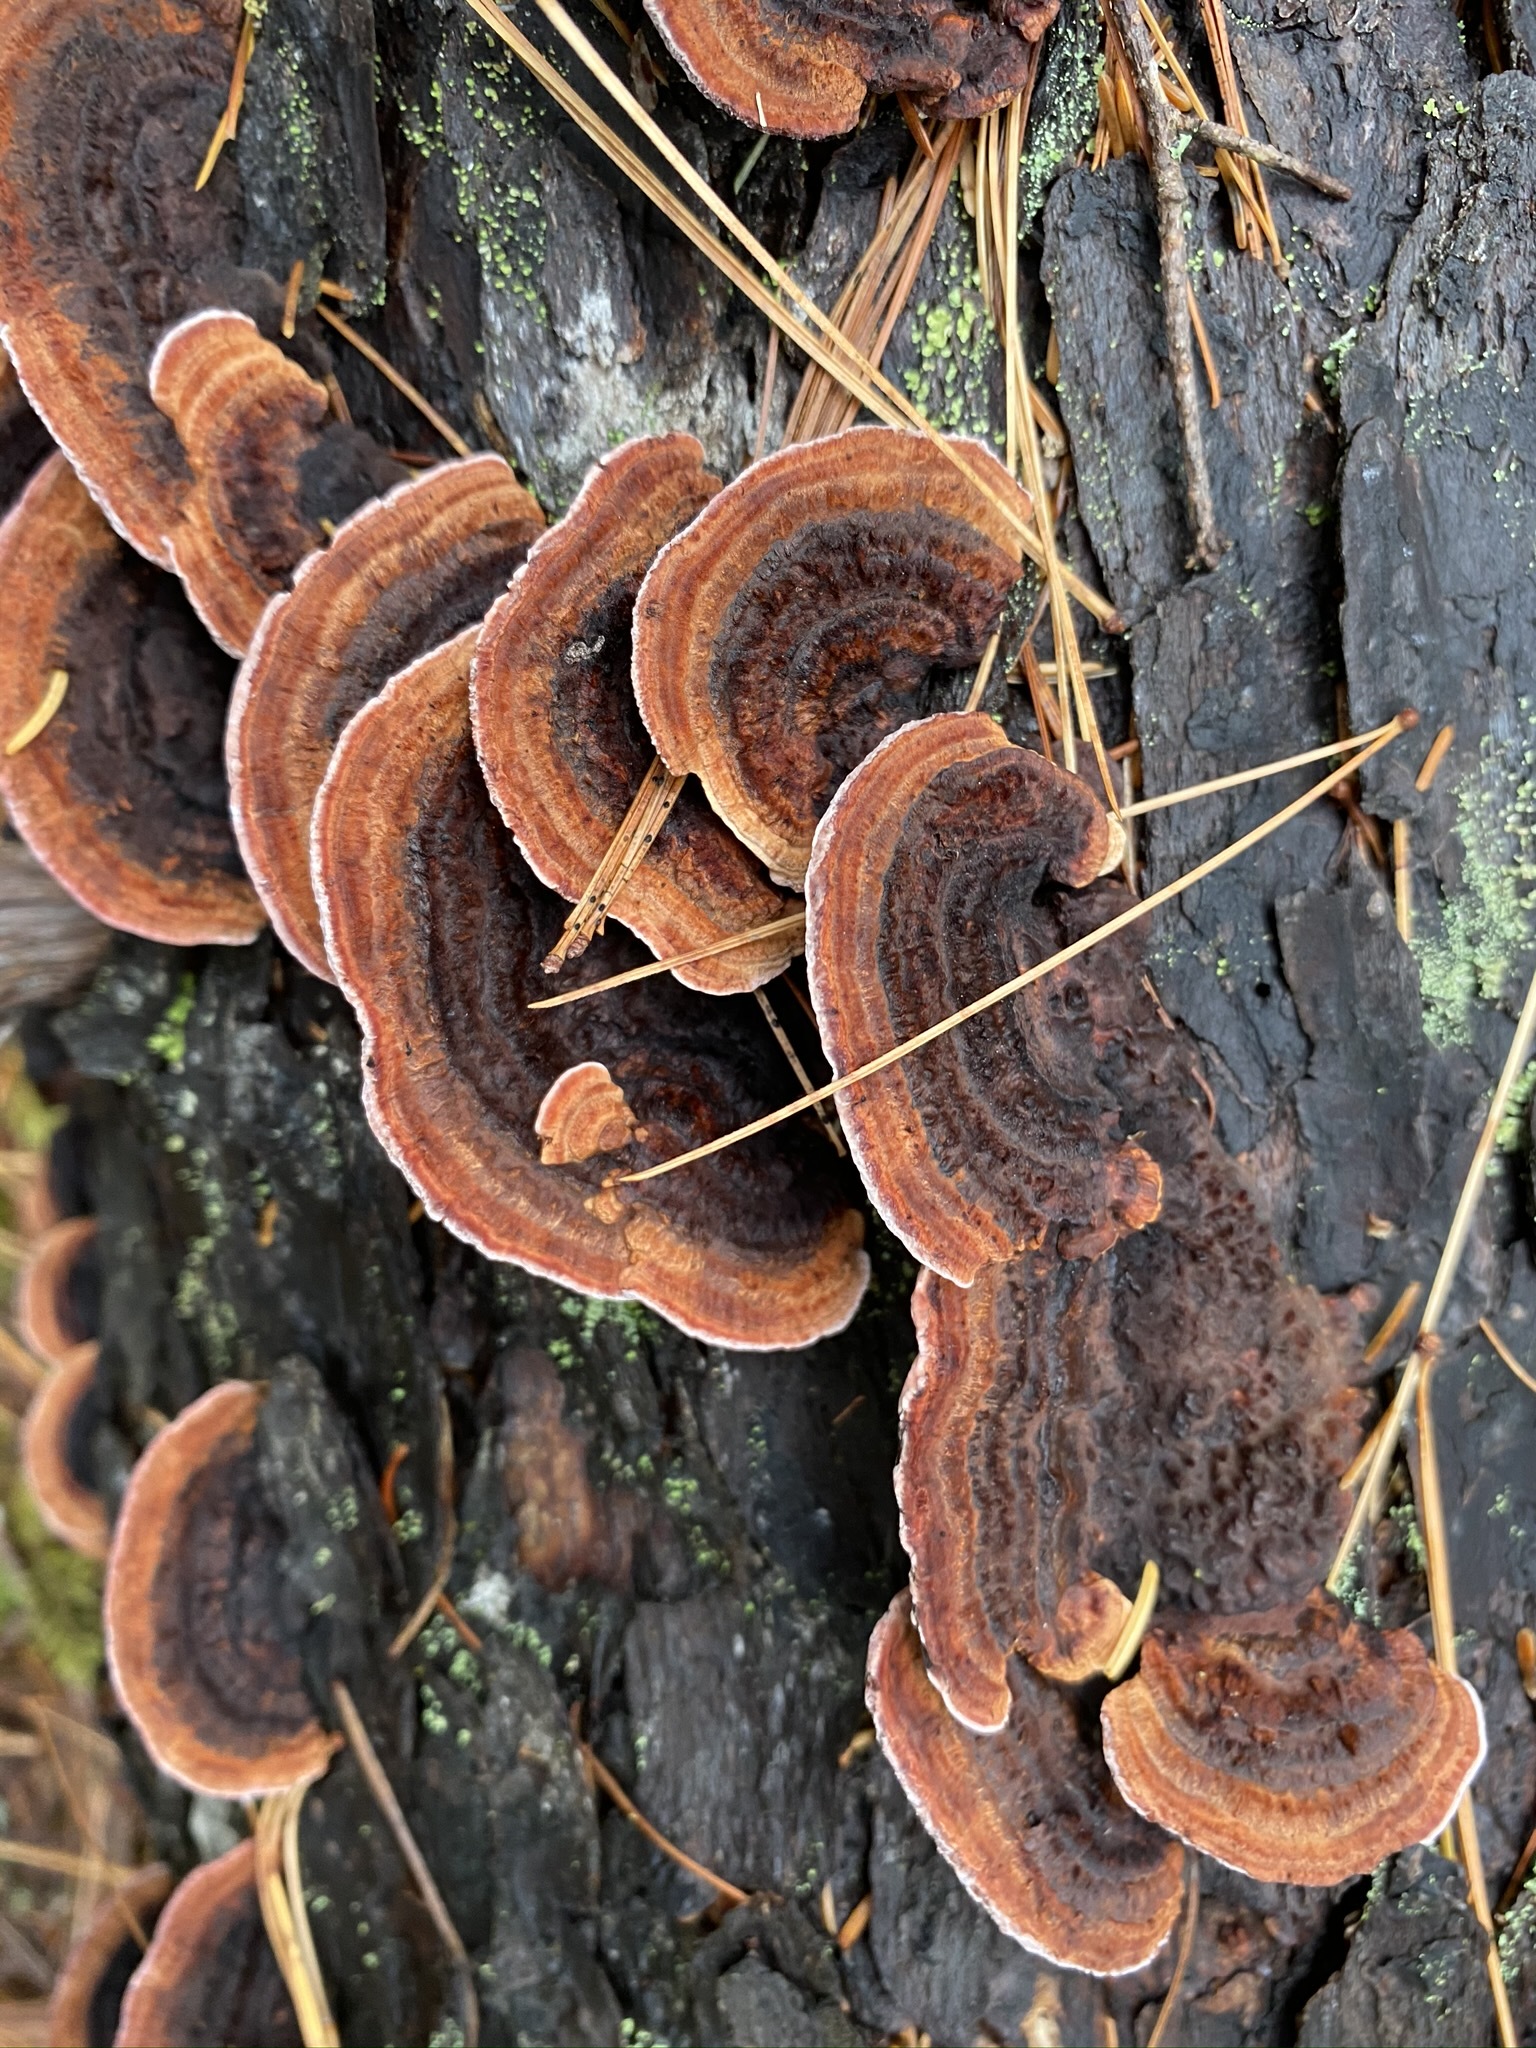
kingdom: Fungi
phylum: Basidiomycota
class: Agaricomycetes
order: Gloeophyllales
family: Gloeophyllaceae
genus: Gloeophyllum
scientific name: Gloeophyllum sepiarium
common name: Conifer mazegill
